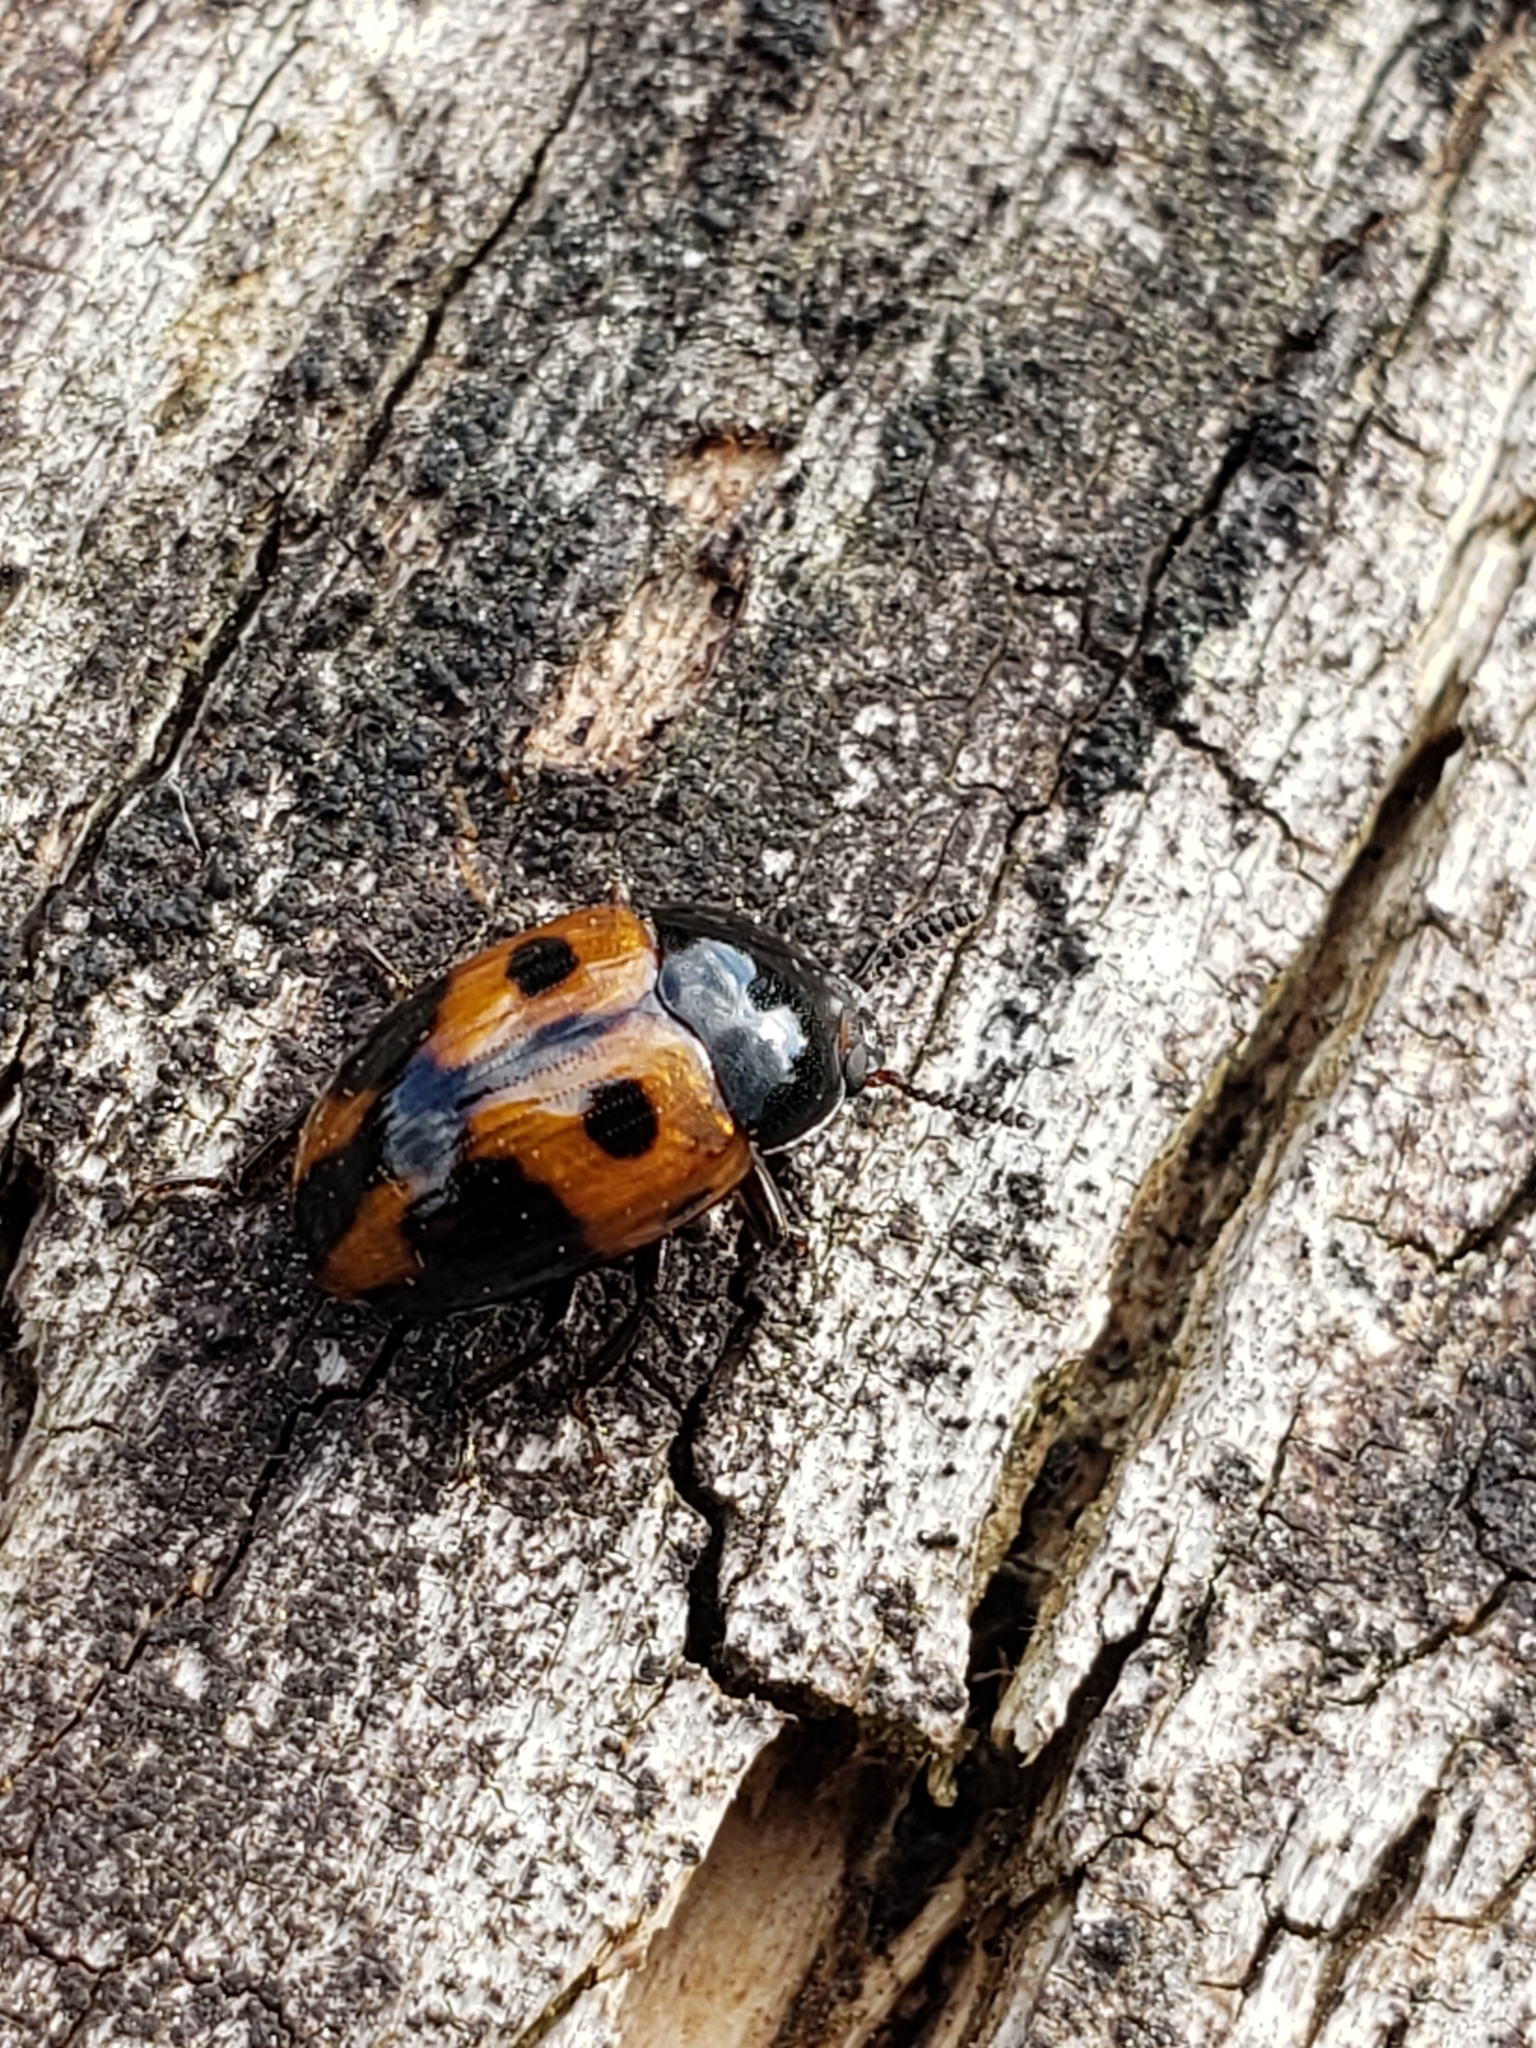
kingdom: Animalia
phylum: Arthropoda
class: Insecta
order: Coleoptera
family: Tenebrionidae
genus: Diaperis
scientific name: Diaperis maculata
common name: Darkling beetle
